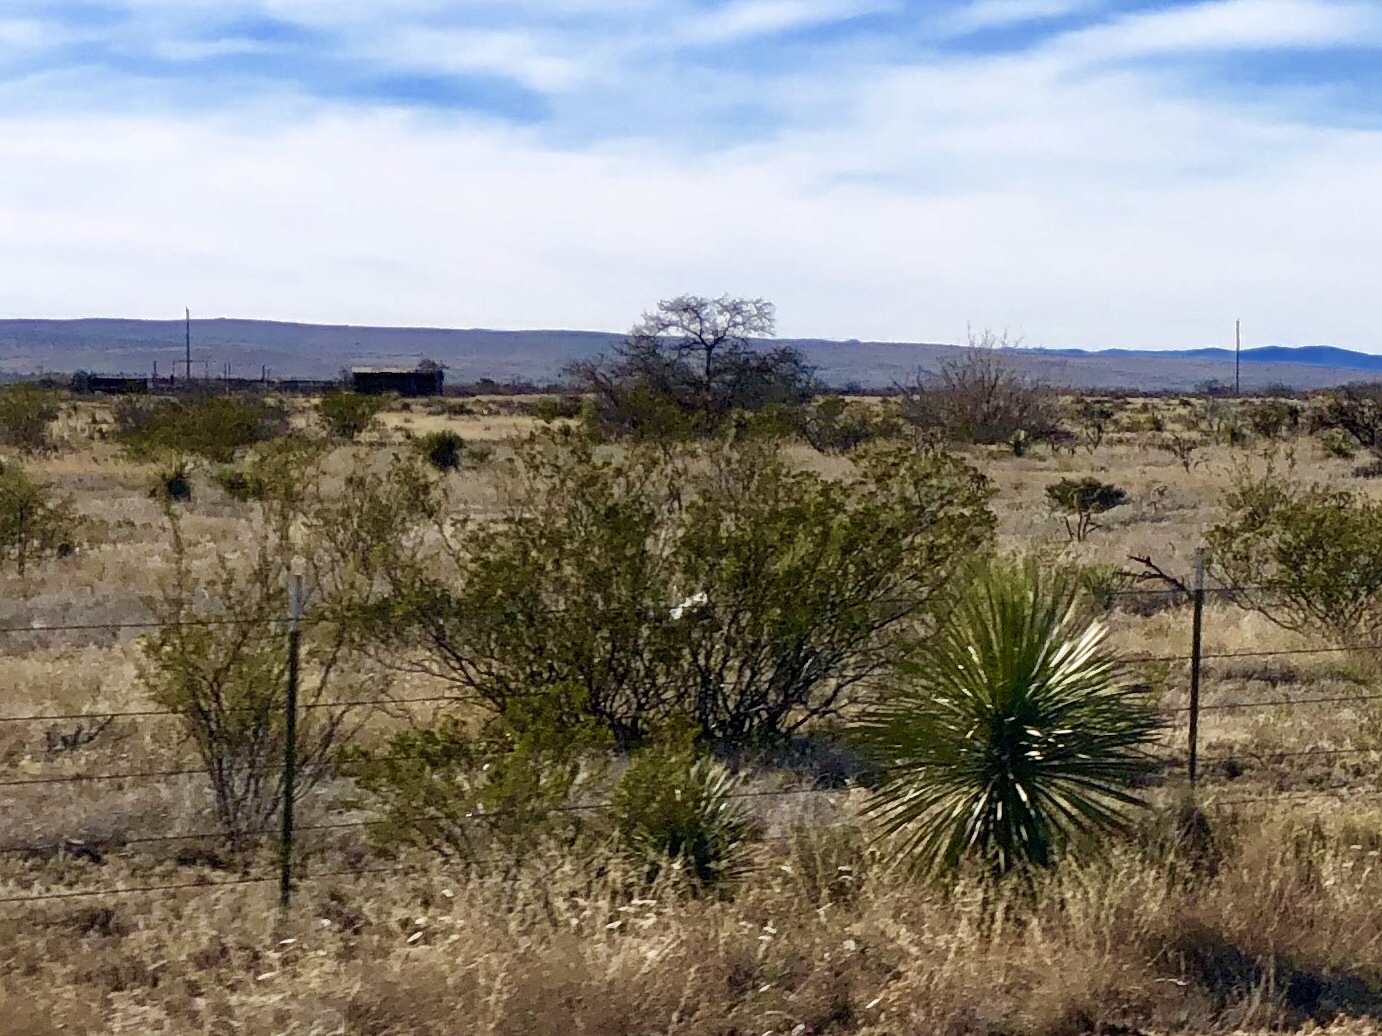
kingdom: Plantae
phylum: Tracheophyta
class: Magnoliopsida
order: Zygophyllales
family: Zygophyllaceae
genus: Larrea
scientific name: Larrea tridentata
